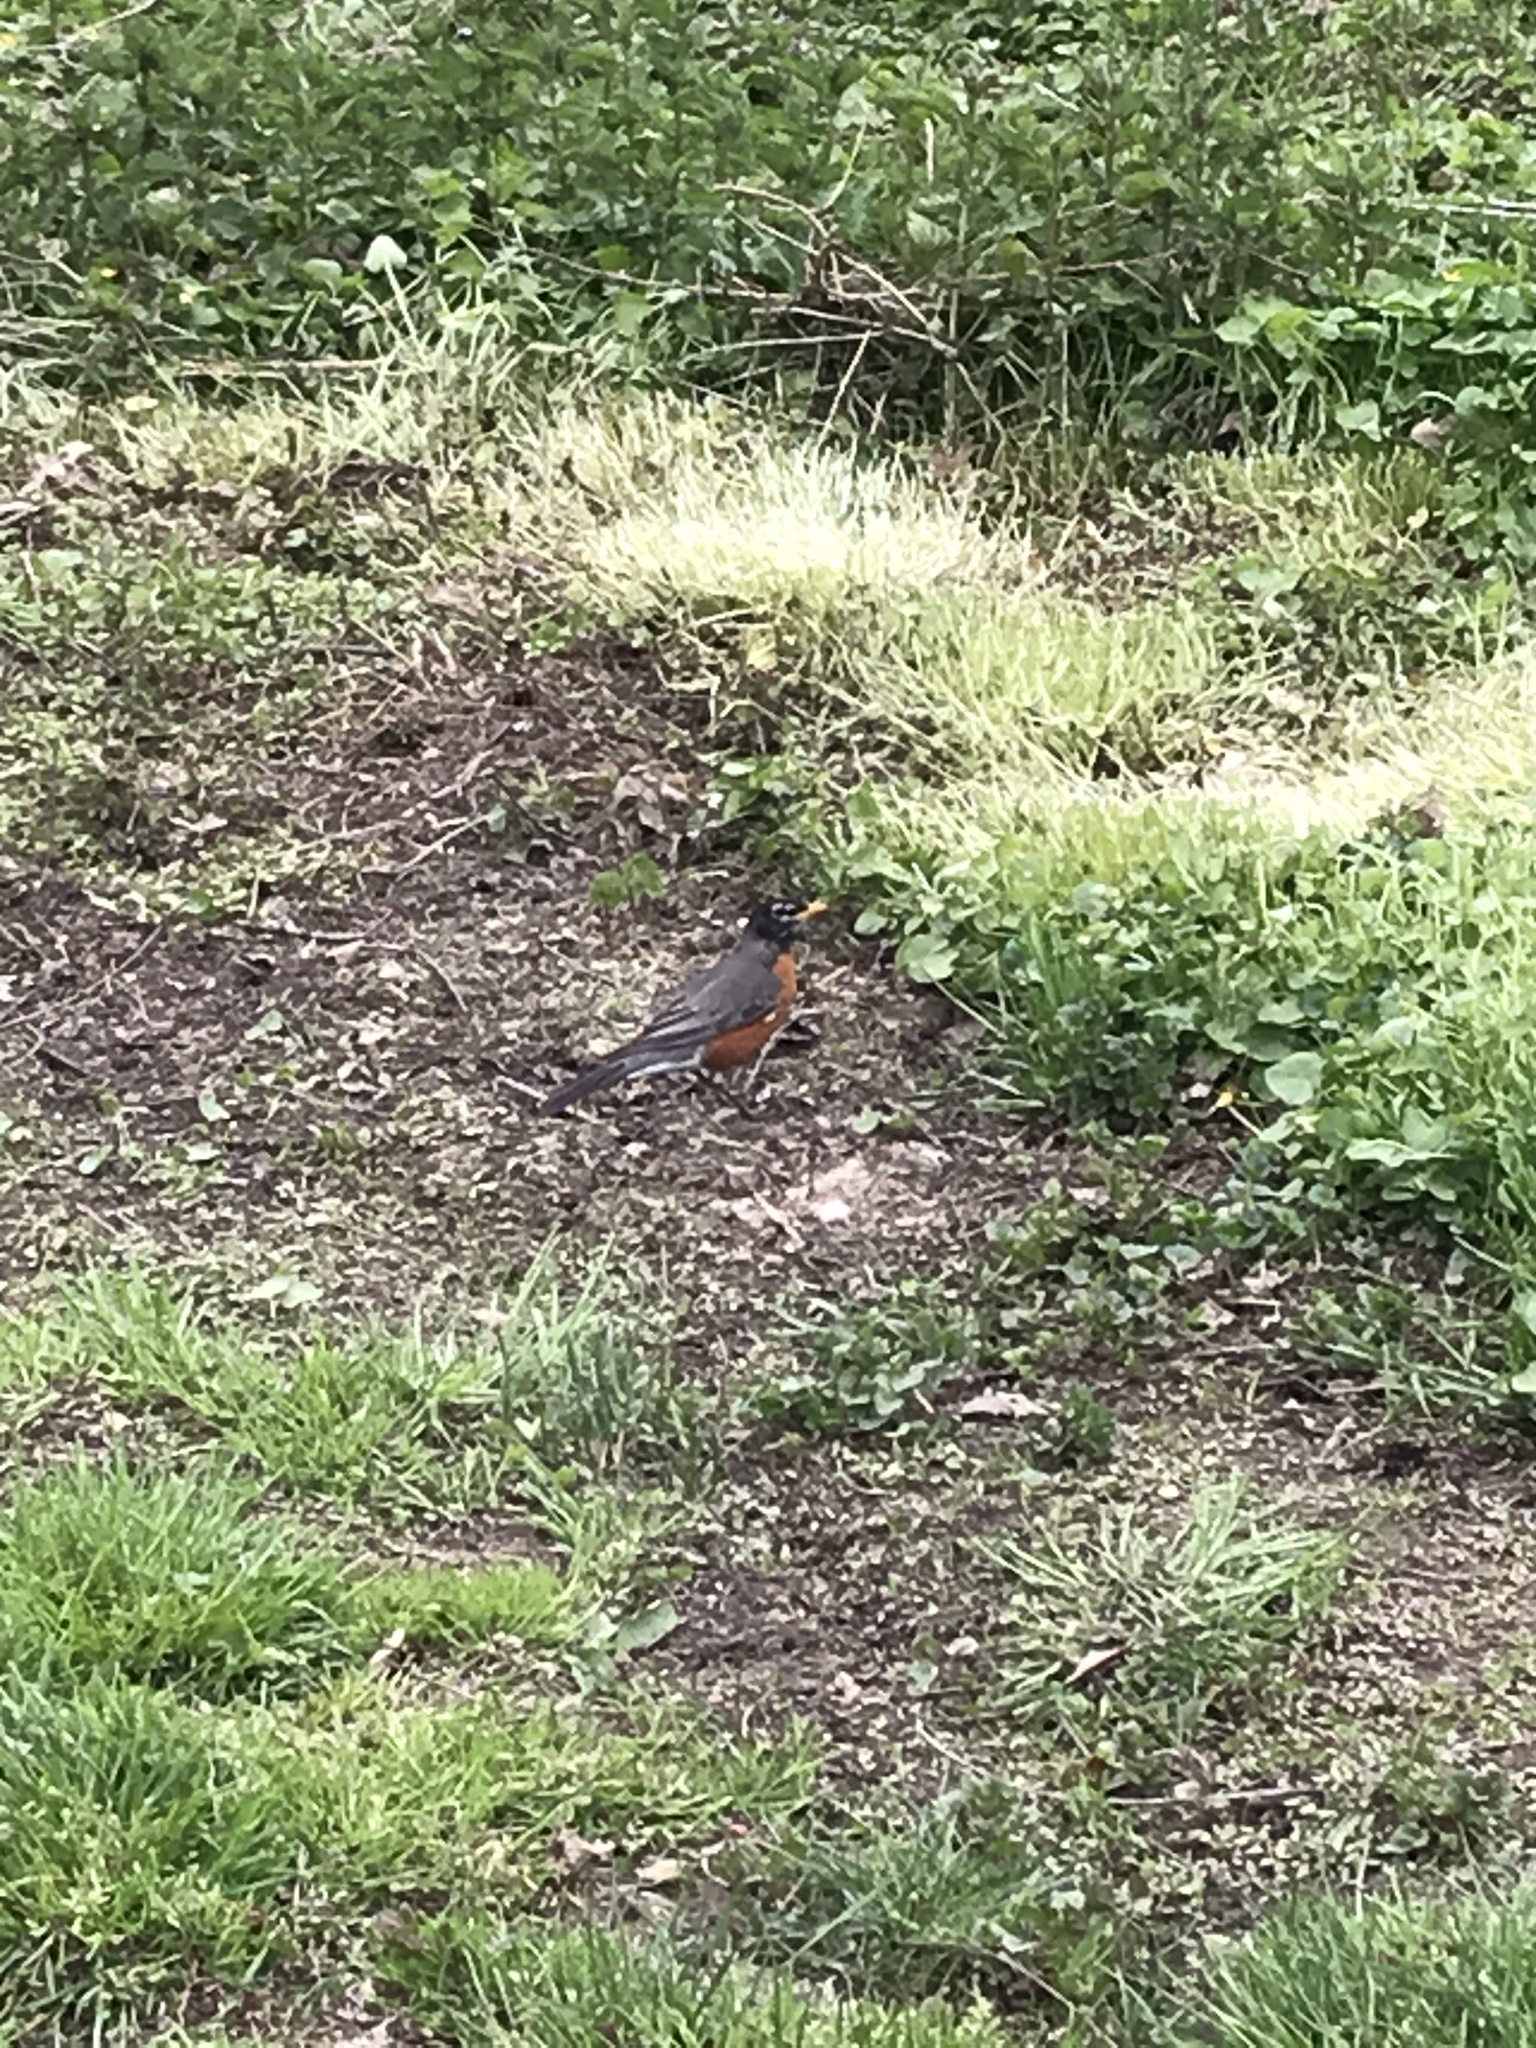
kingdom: Animalia
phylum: Chordata
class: Aves
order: Passeriformes
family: Turdidae
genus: Turdus
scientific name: Turdus migratorius
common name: American robin
